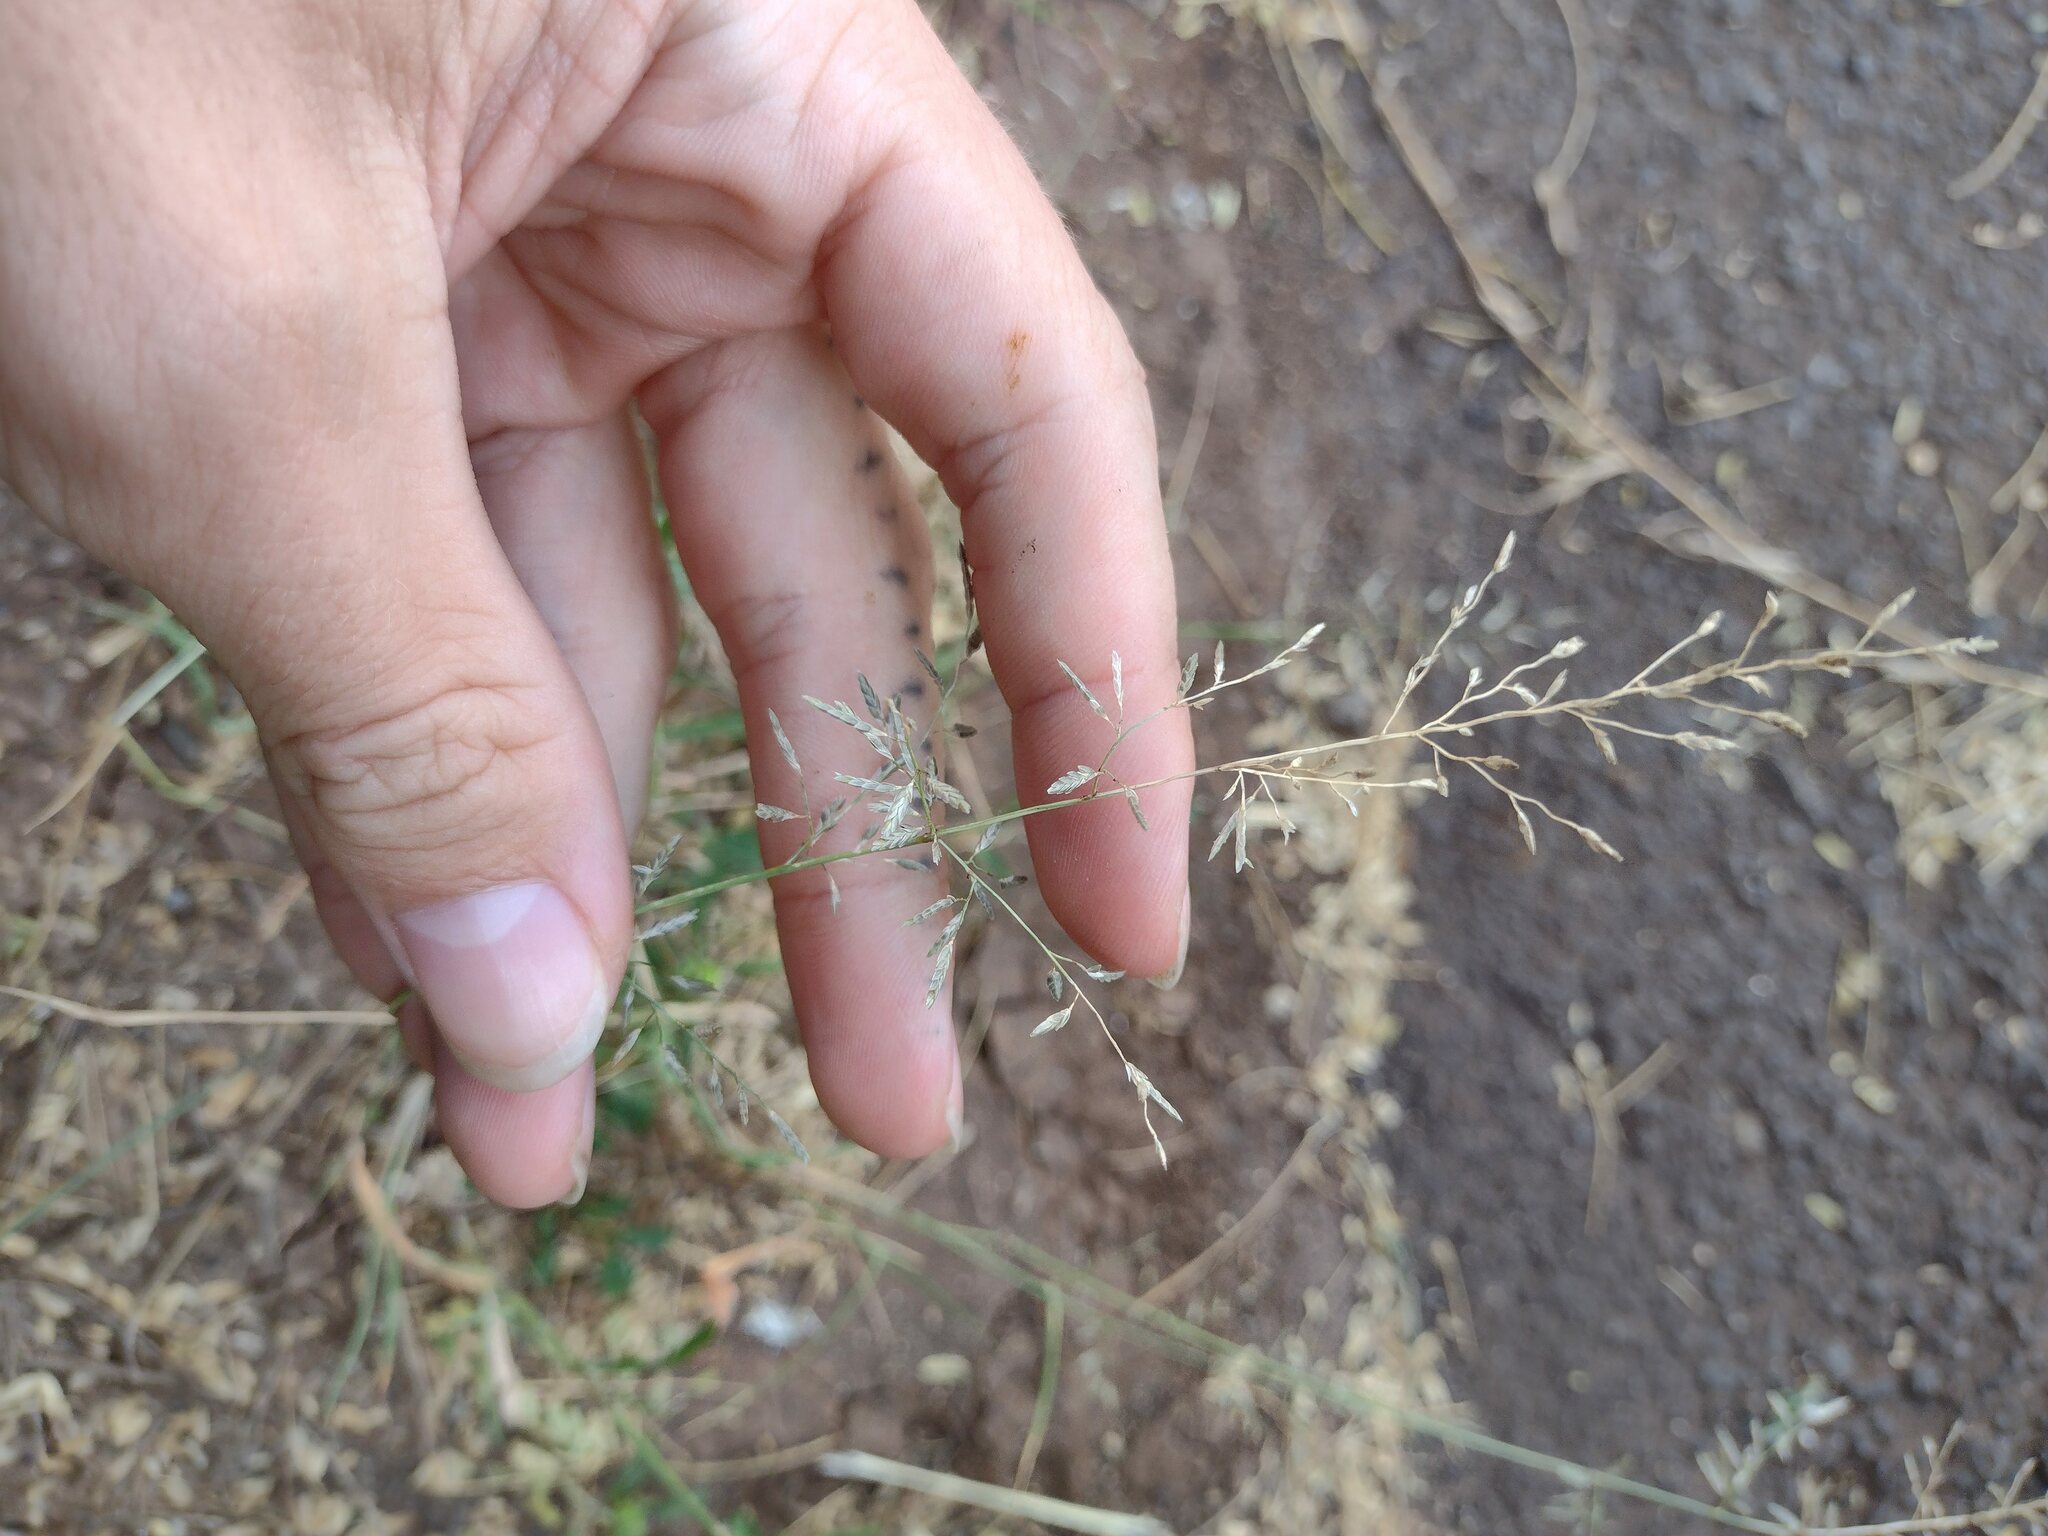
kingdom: Plantae
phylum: Tracheophyta
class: Liliopsida
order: Poales
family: Poaceae
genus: Eragrostis
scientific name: Eragrostis barrelieri
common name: Mediterranean lovegrass
